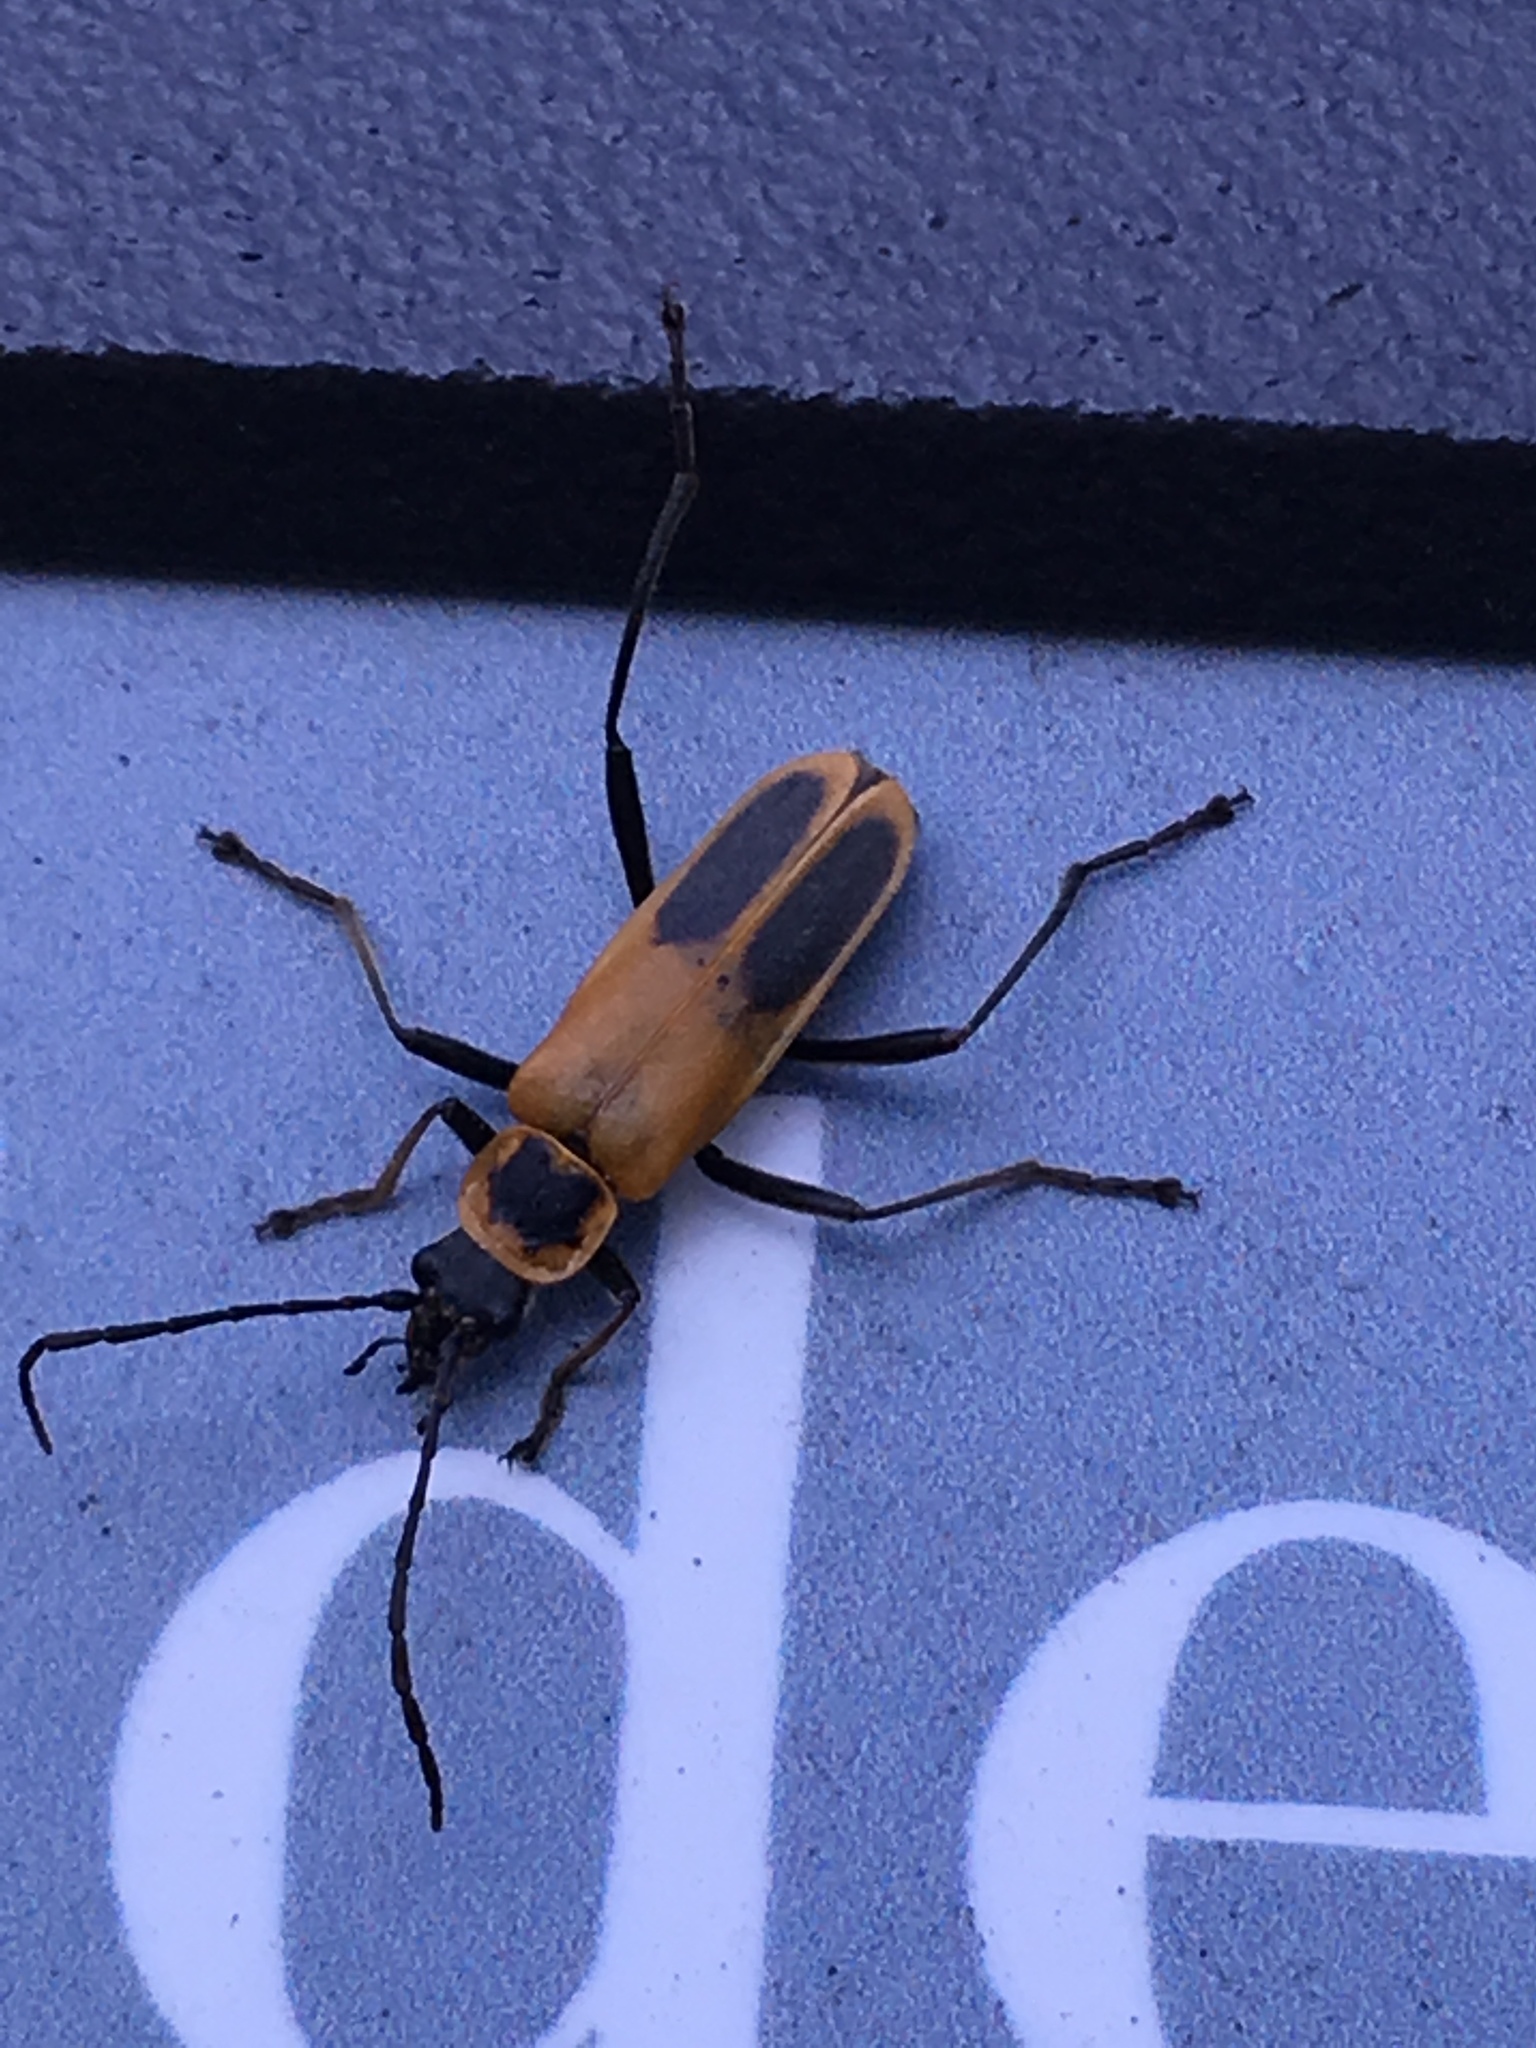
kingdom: Animalia
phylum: Arthropoda
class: Insecta
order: Coleoptera
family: Cantharidae
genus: Chauliognathus
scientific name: Chauliognathus pensylvanicus
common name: Goldenrod soldier beetle
